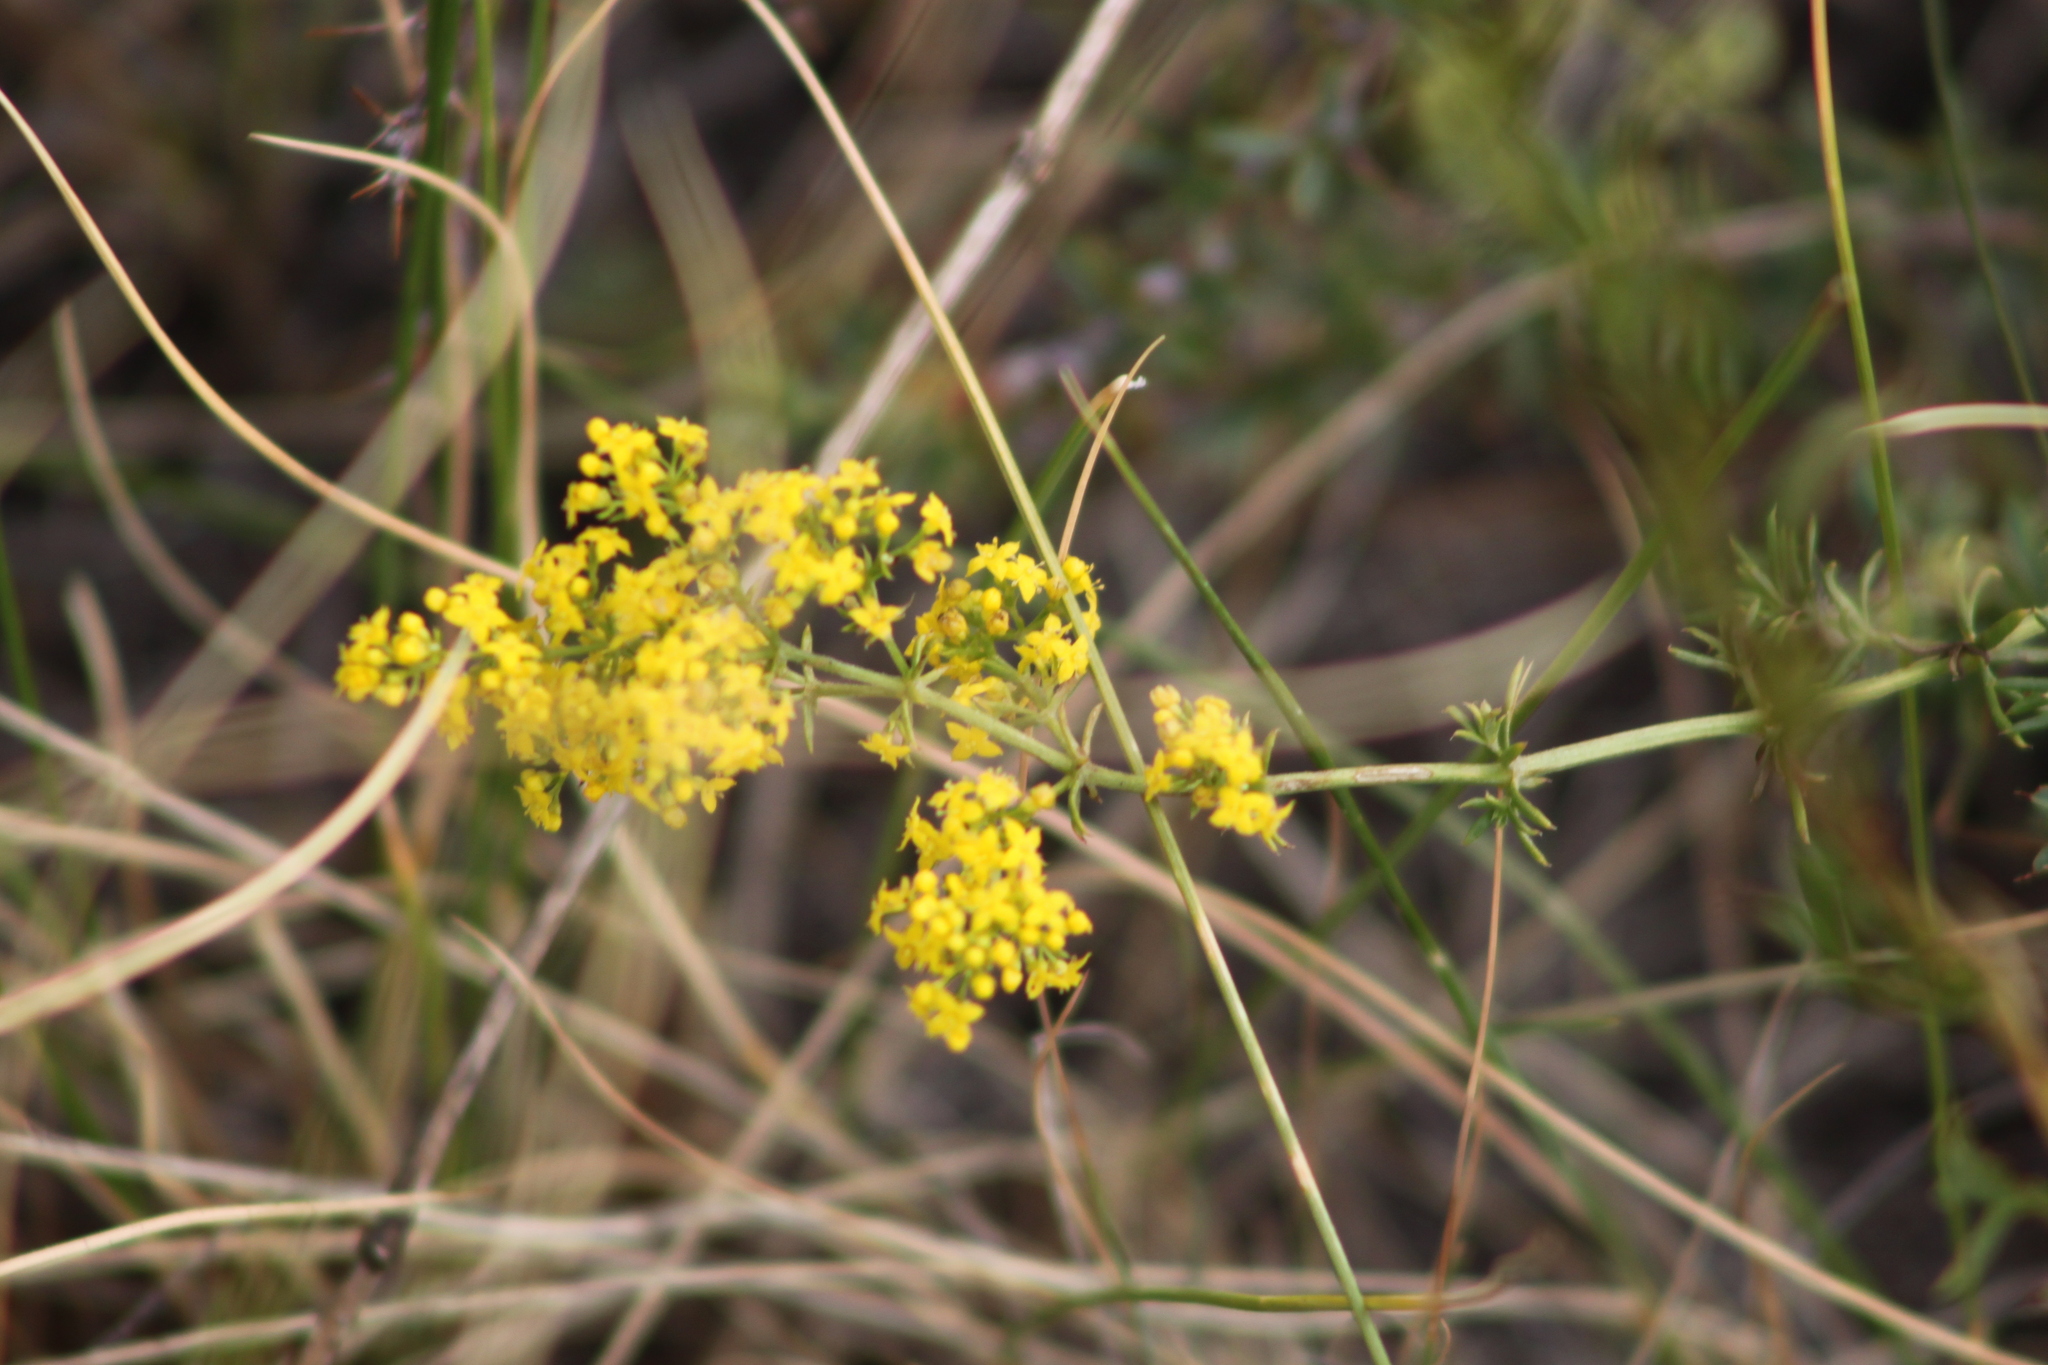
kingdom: Plantae
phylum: Tracheophyta
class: Magnoliopsida
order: Gentianales
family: Rubiaceae
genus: Galium
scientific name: Galium verum
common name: Lady's bedstraw
